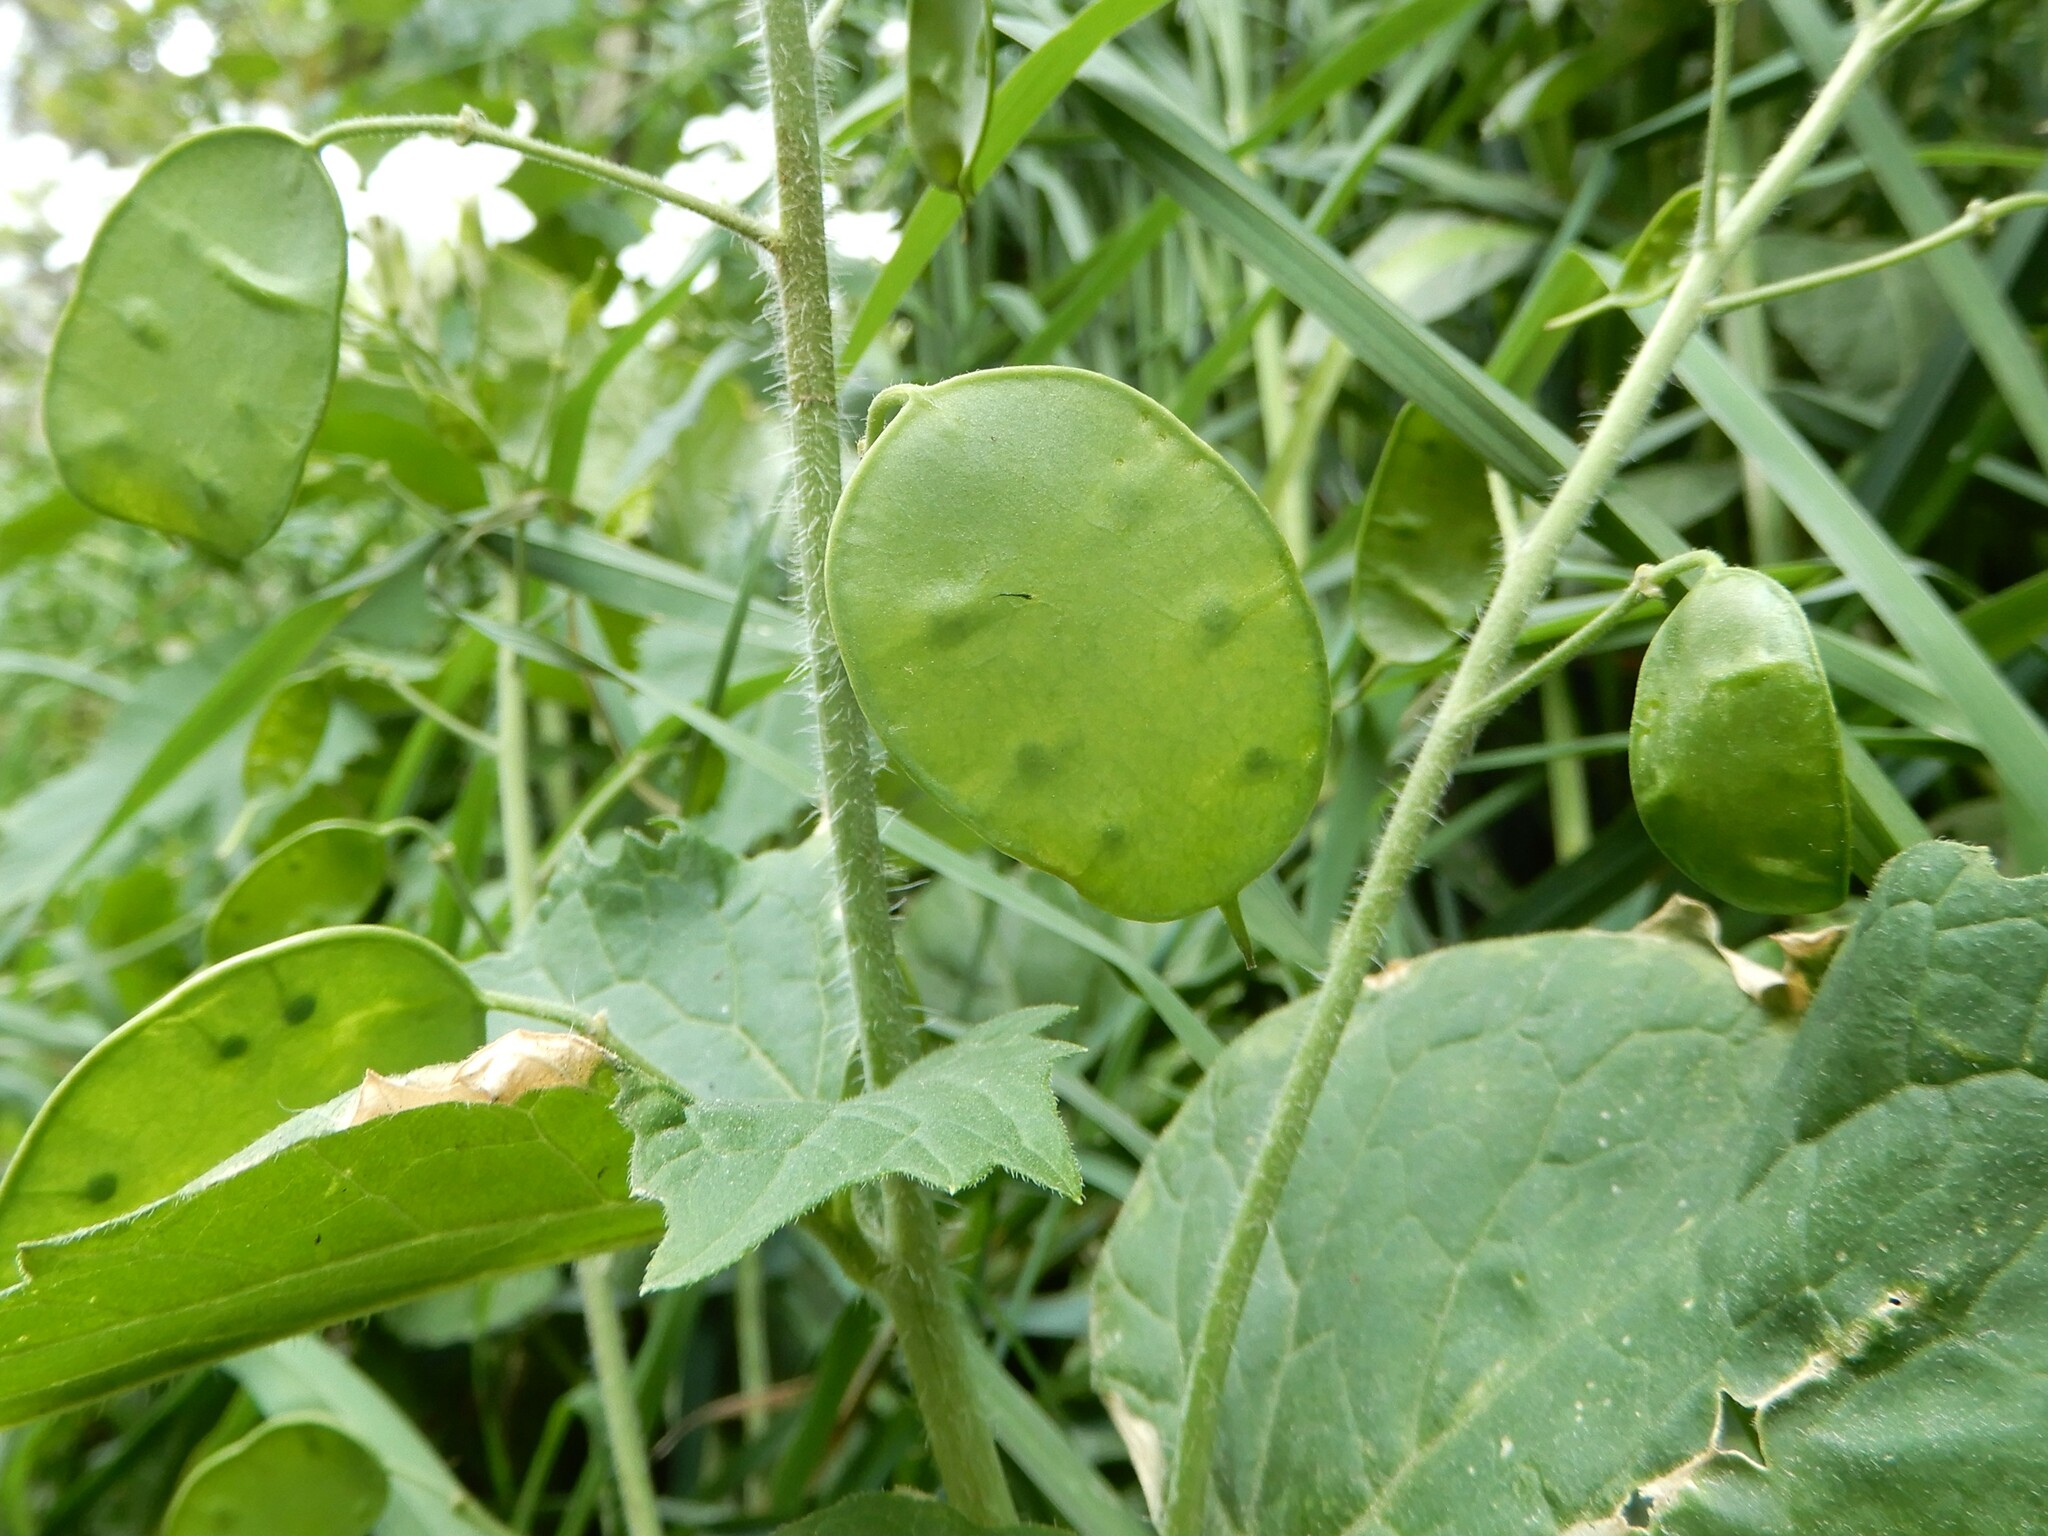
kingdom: Plantae
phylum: Tracheophyta
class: Magnoliopsida
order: Brassicales
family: Brassicaceae
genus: Lunaria
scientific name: Lunaria annua
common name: Honesty
